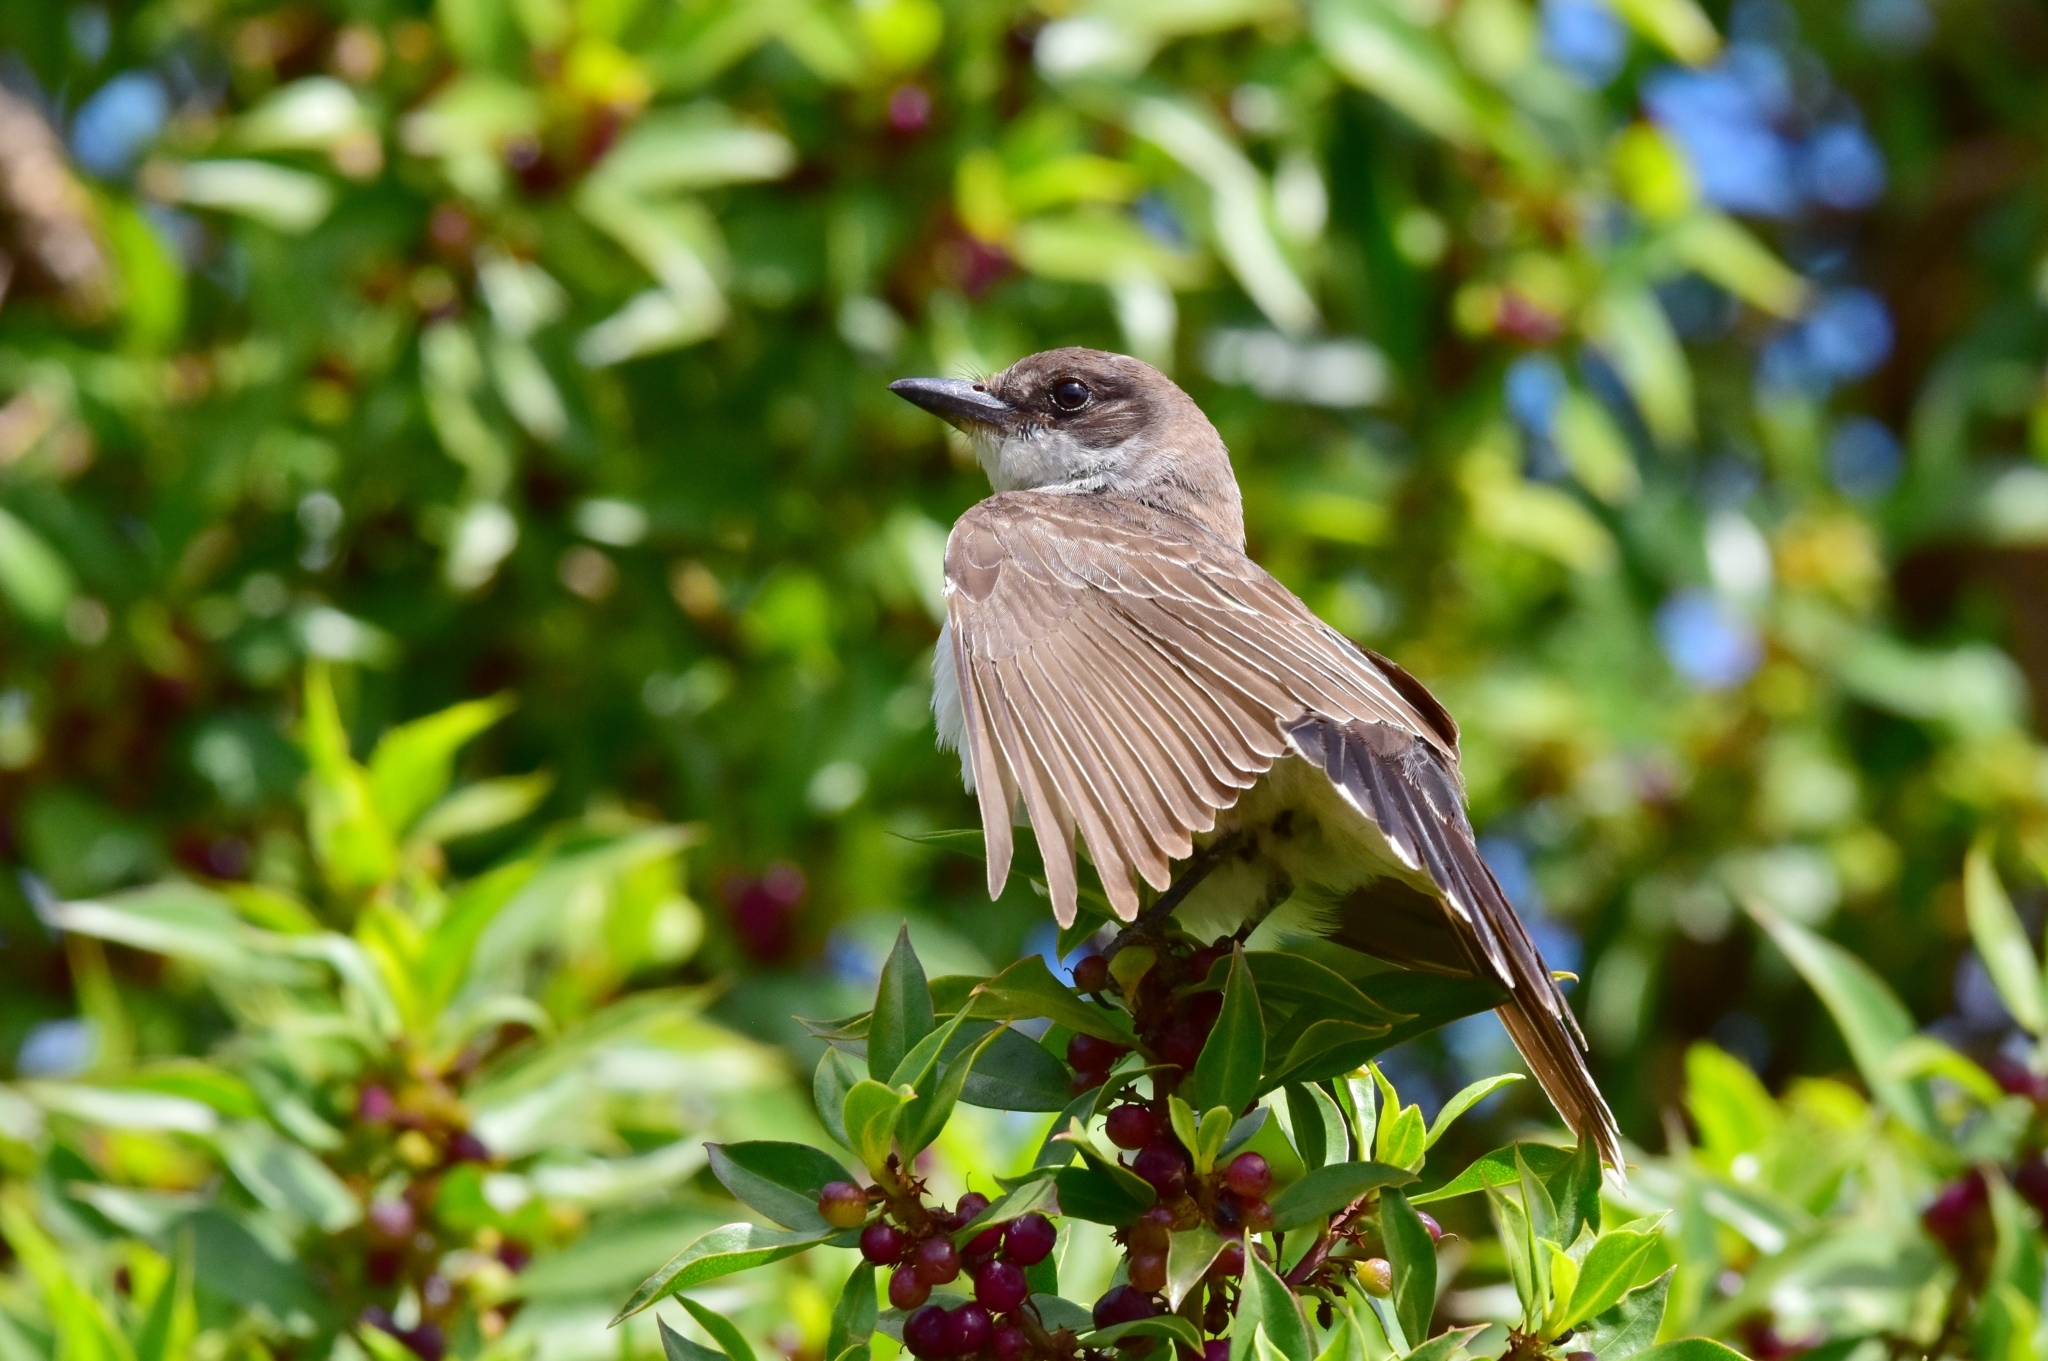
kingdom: Animalia
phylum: Chordata
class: Aves
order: Passeriformes
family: Tyrannidae
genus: Tyrannus
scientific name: Tyrannus tyrannus
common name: Eastern kingbird
